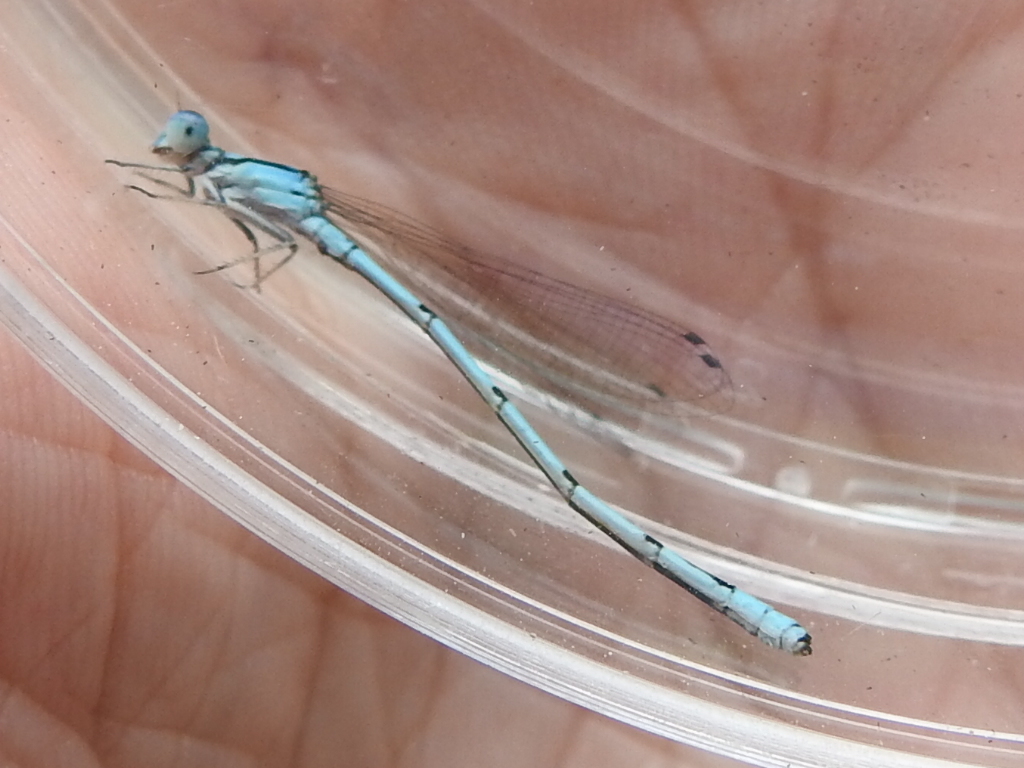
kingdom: Animalia
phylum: Arthropoda
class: Insecta
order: Odonata
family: Coenagrionidae
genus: Enallagma
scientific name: Enallagma civile
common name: Damselfly
